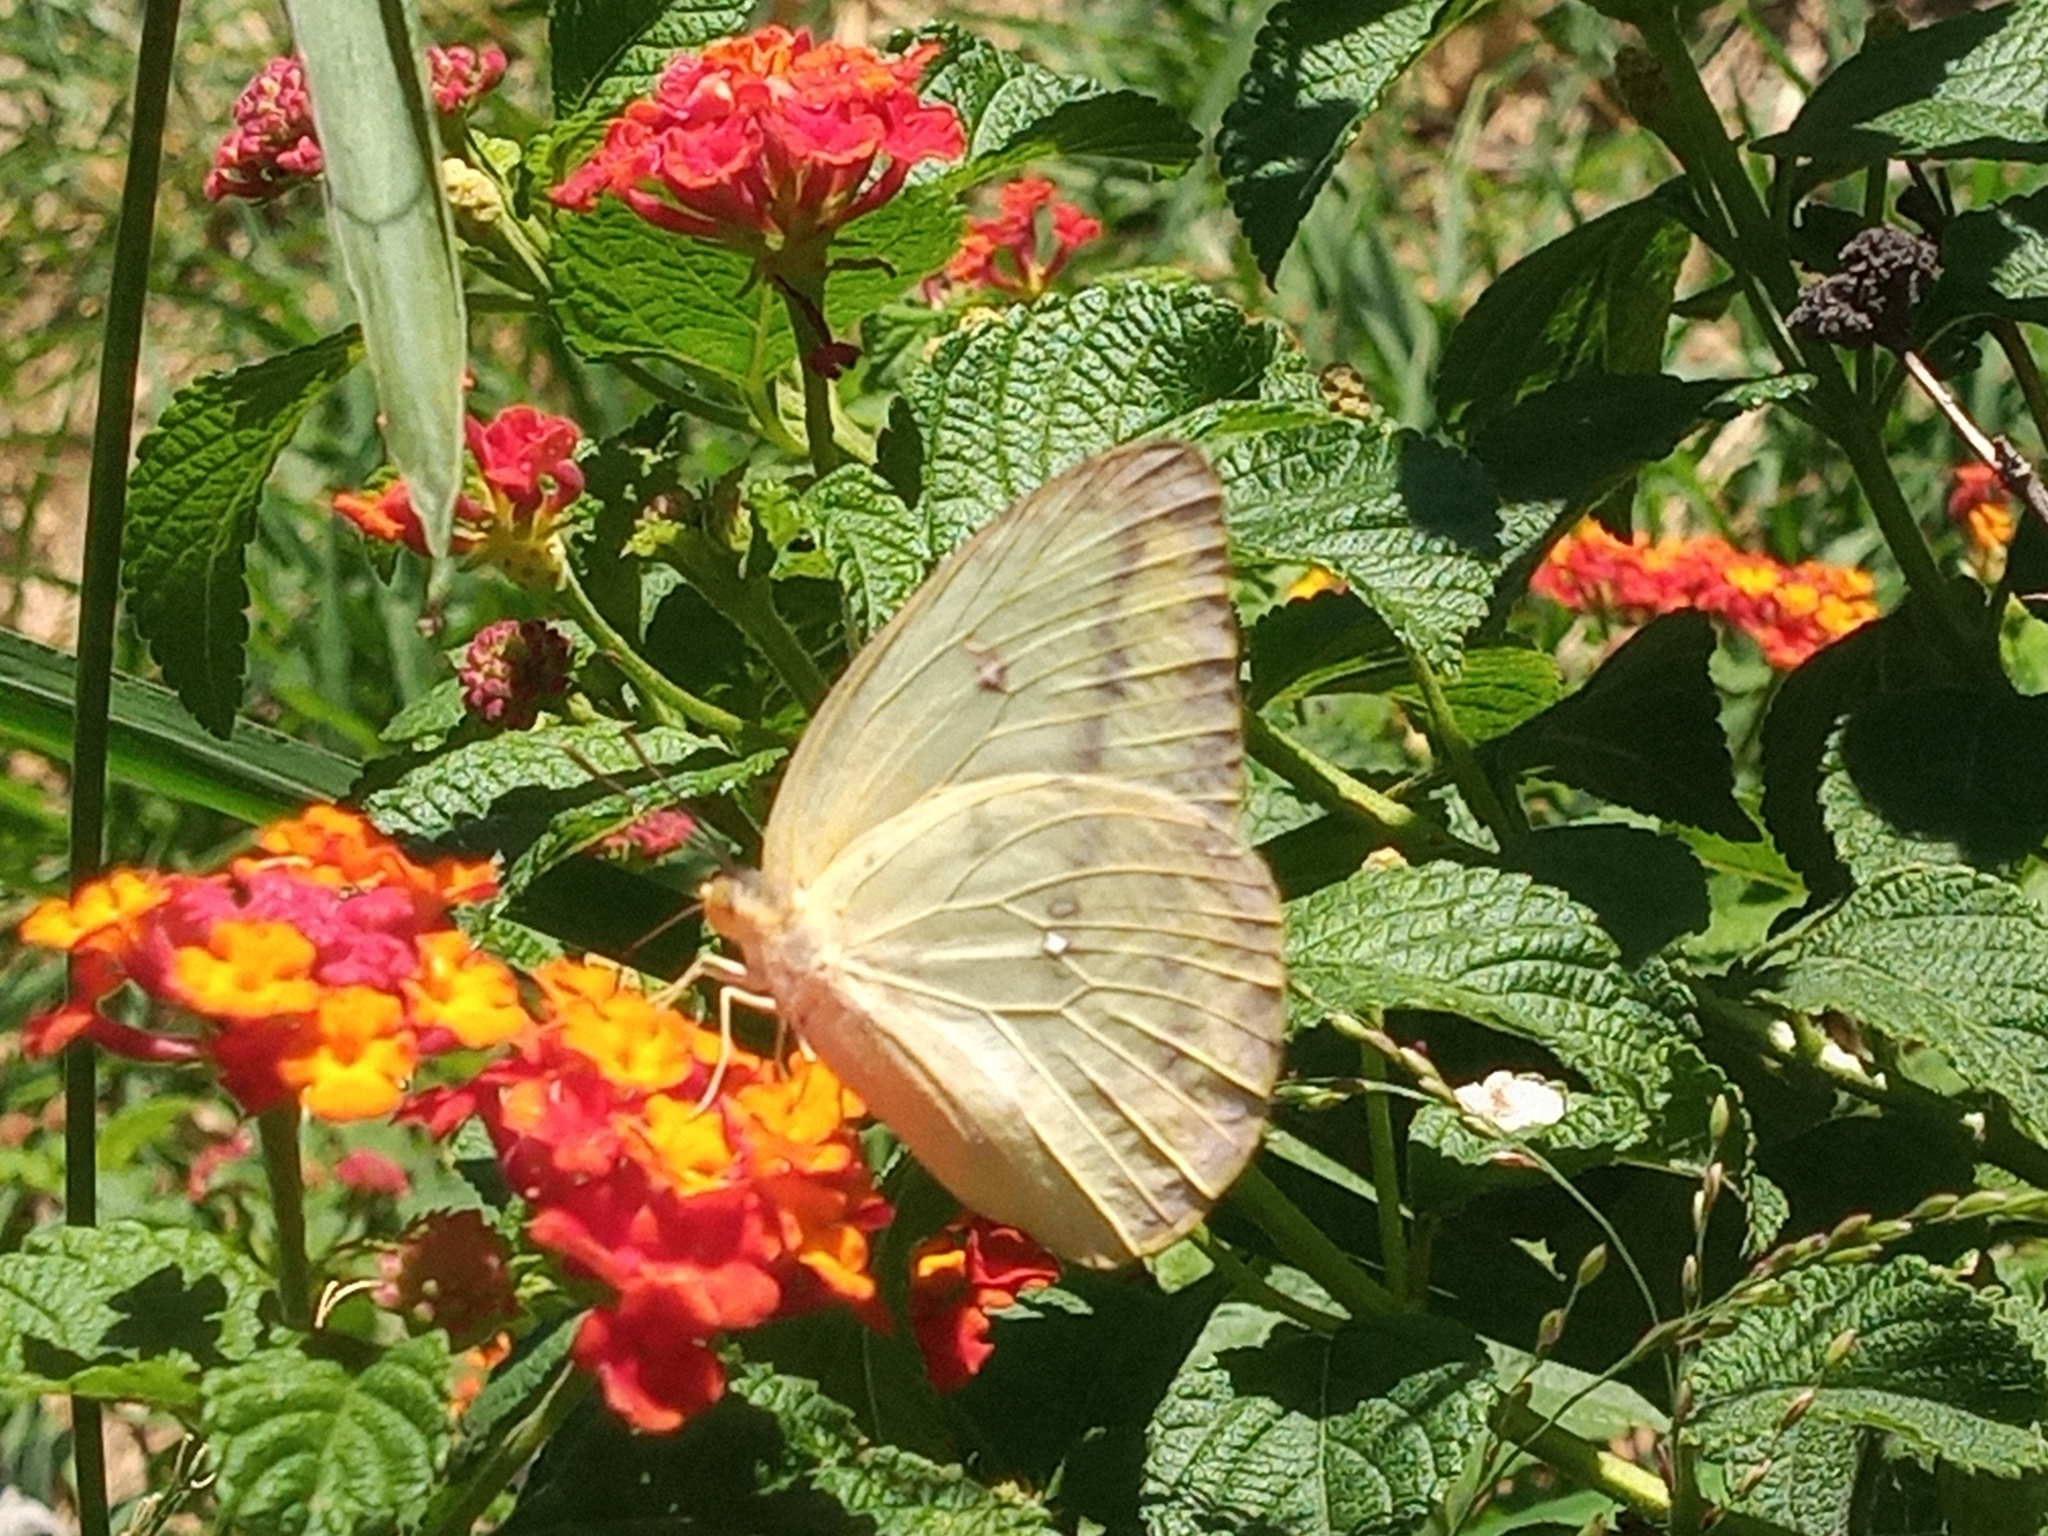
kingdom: Animalia
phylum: Arthropoda
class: Insecta
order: Lepidoptera
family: Pieridae
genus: Phoebis
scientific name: Phoebis agarithe
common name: Large orange sulphur
